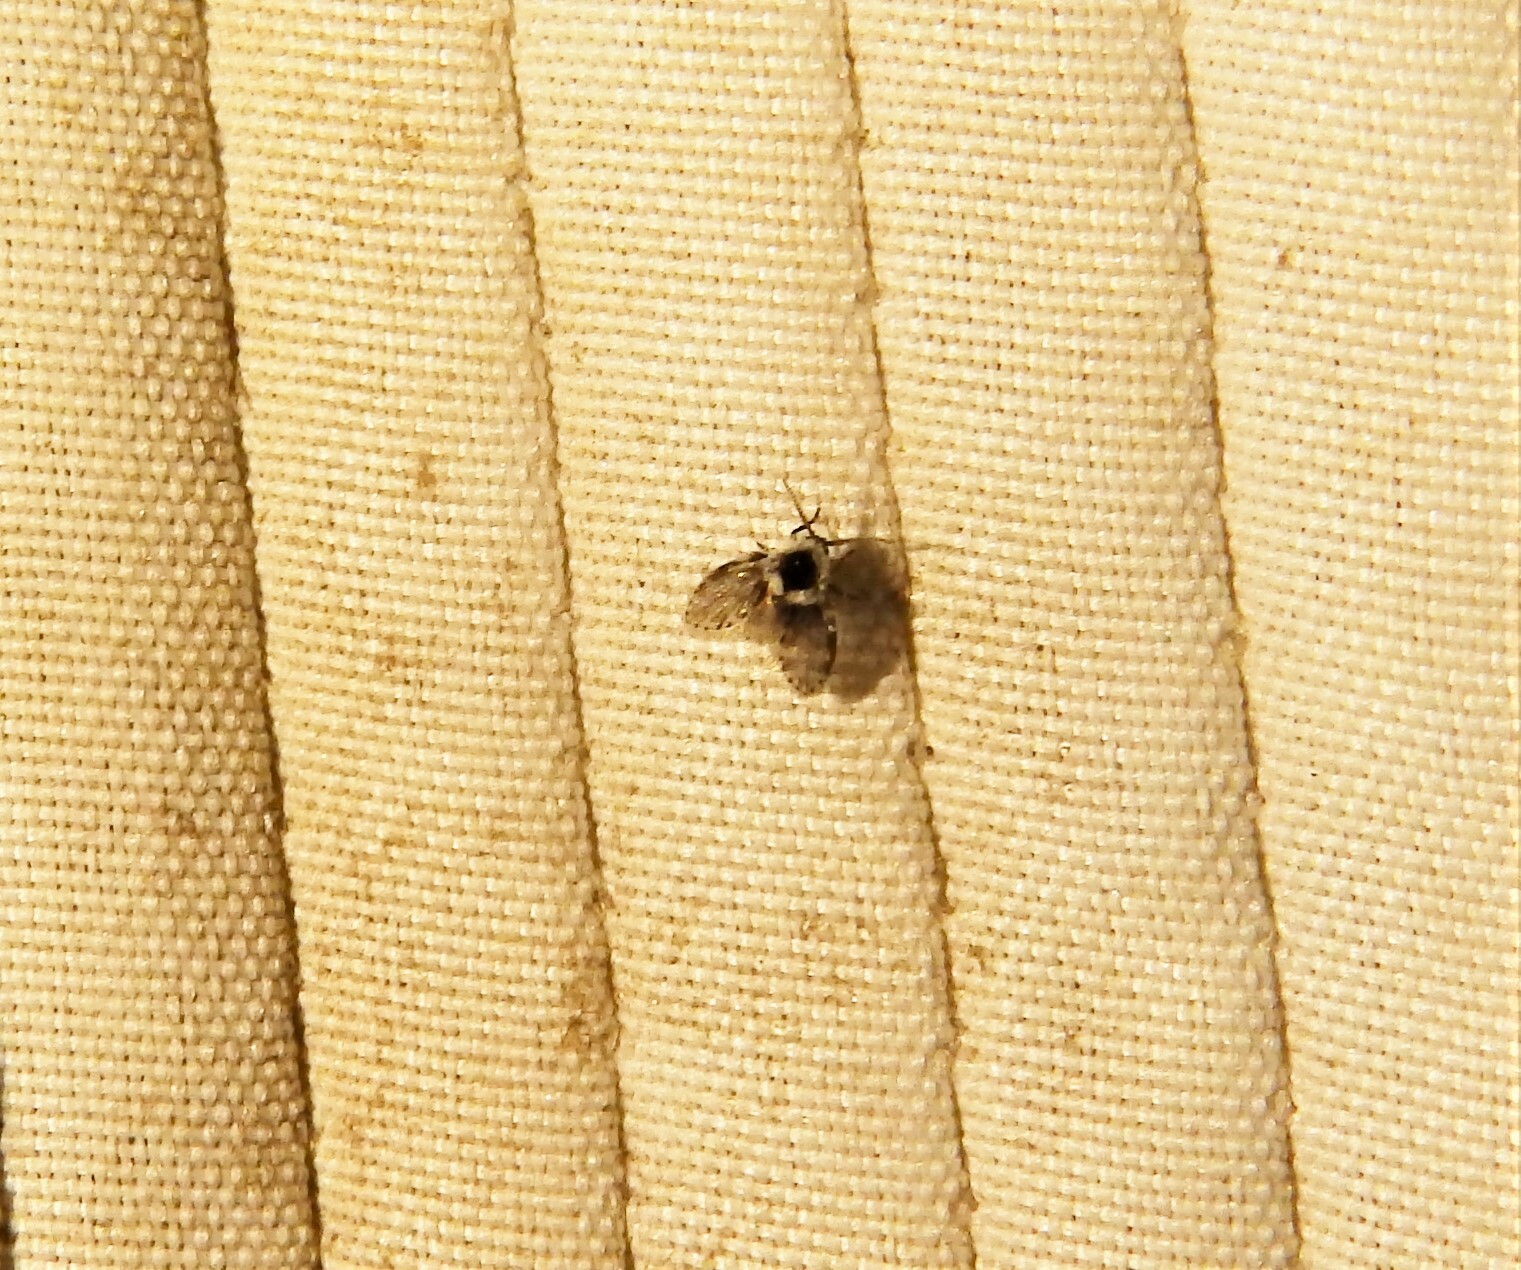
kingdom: Animalia
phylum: Arthropoda
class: Insecta
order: Diptera
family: Psychodidae
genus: Lepiseodina
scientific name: Lepiseodina
